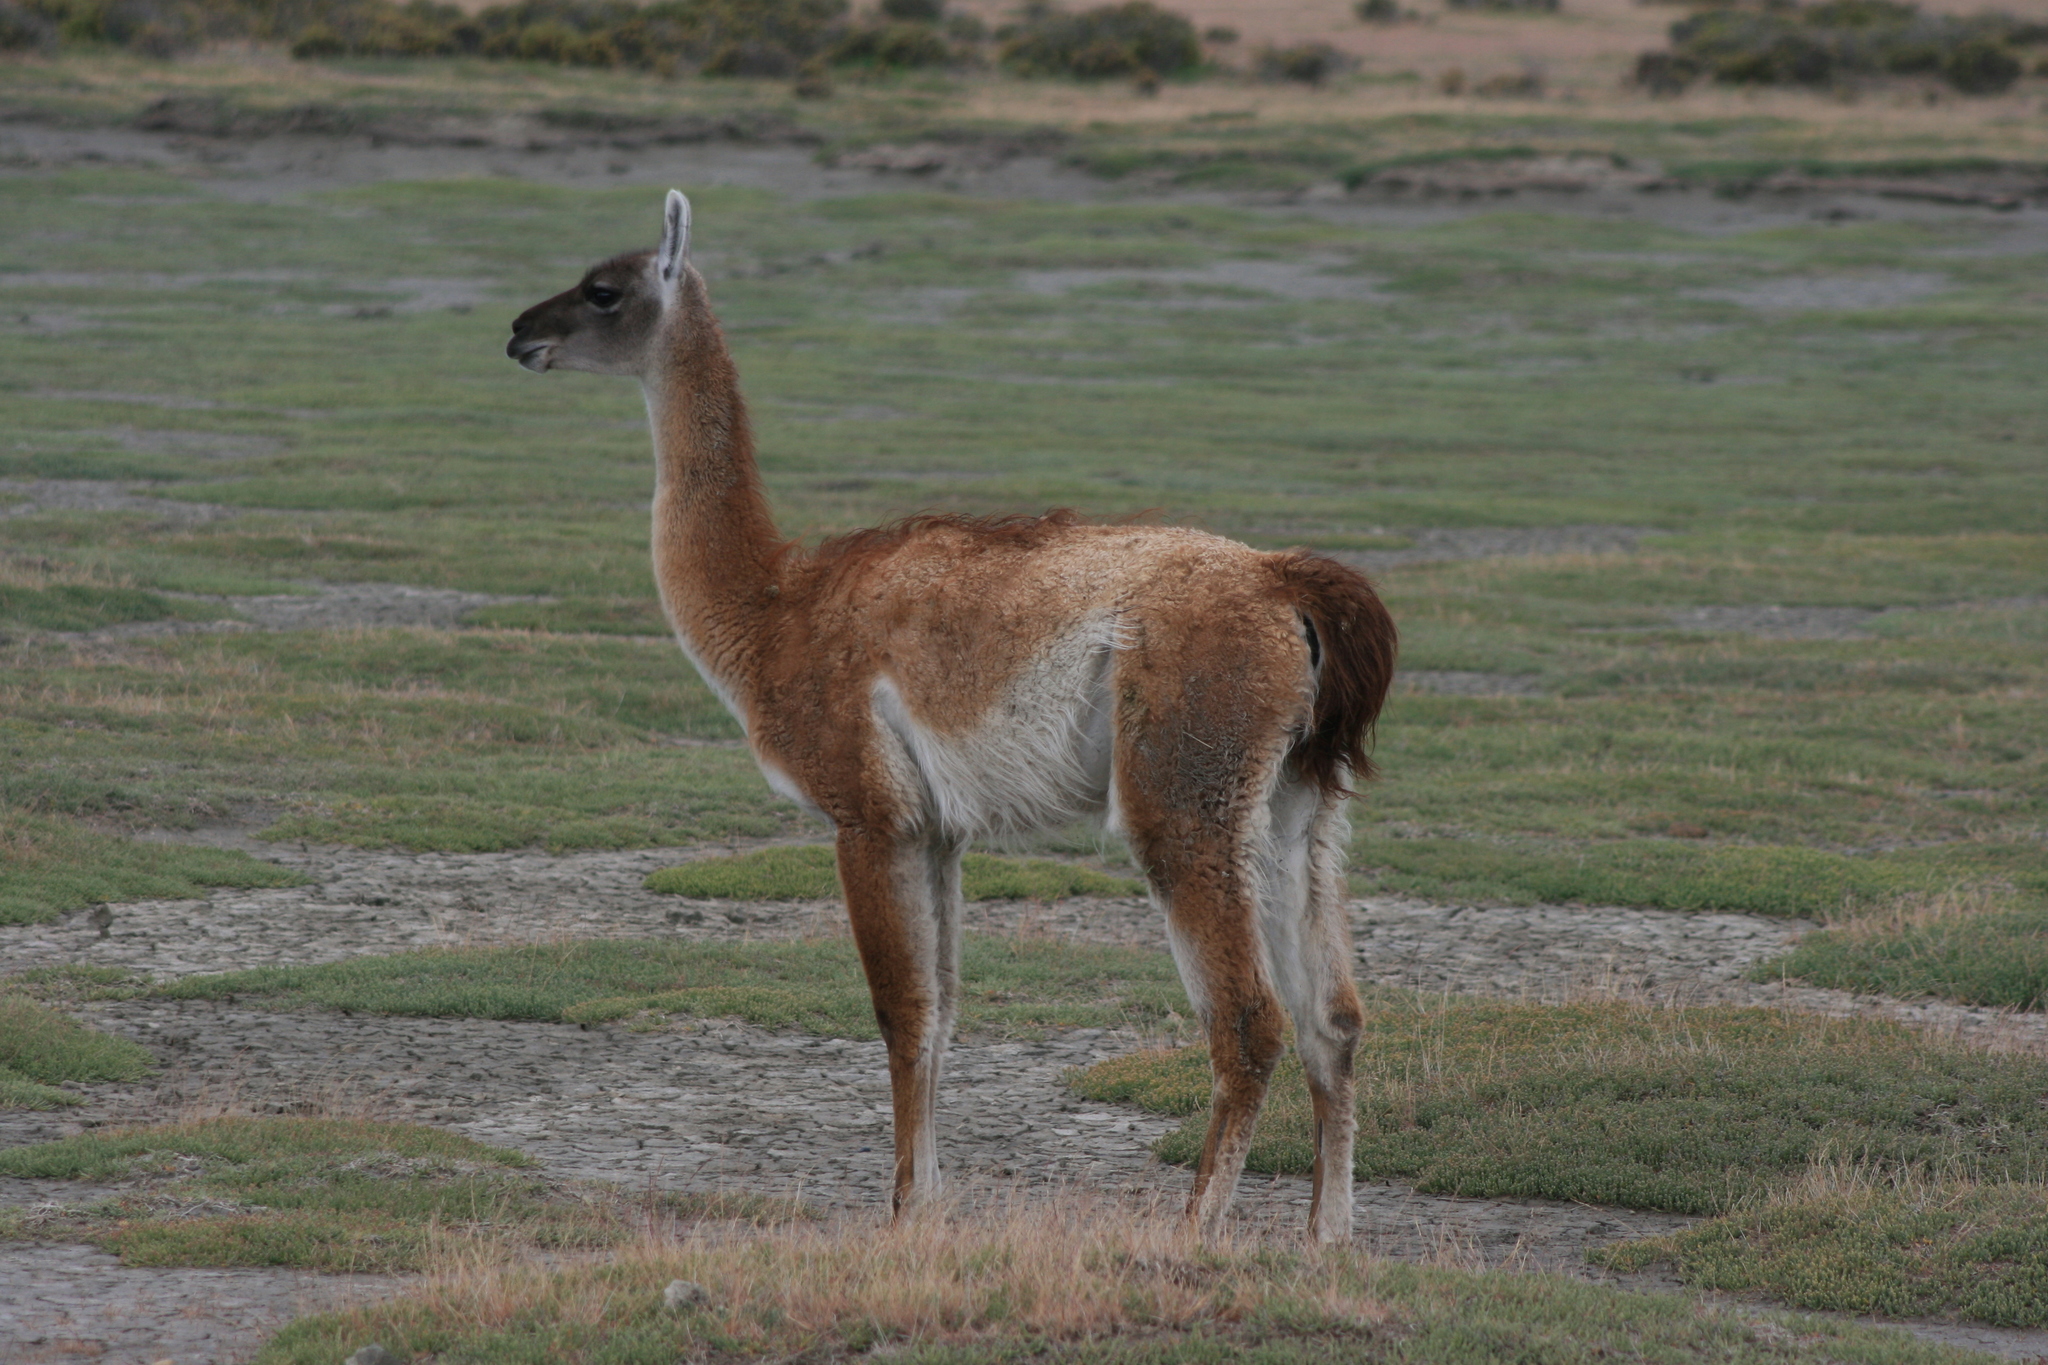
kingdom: Animalia
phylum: Chordata
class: Mammalia
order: Artiodactyla
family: Camelidae
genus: Lama
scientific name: Lama glama
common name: Llama
